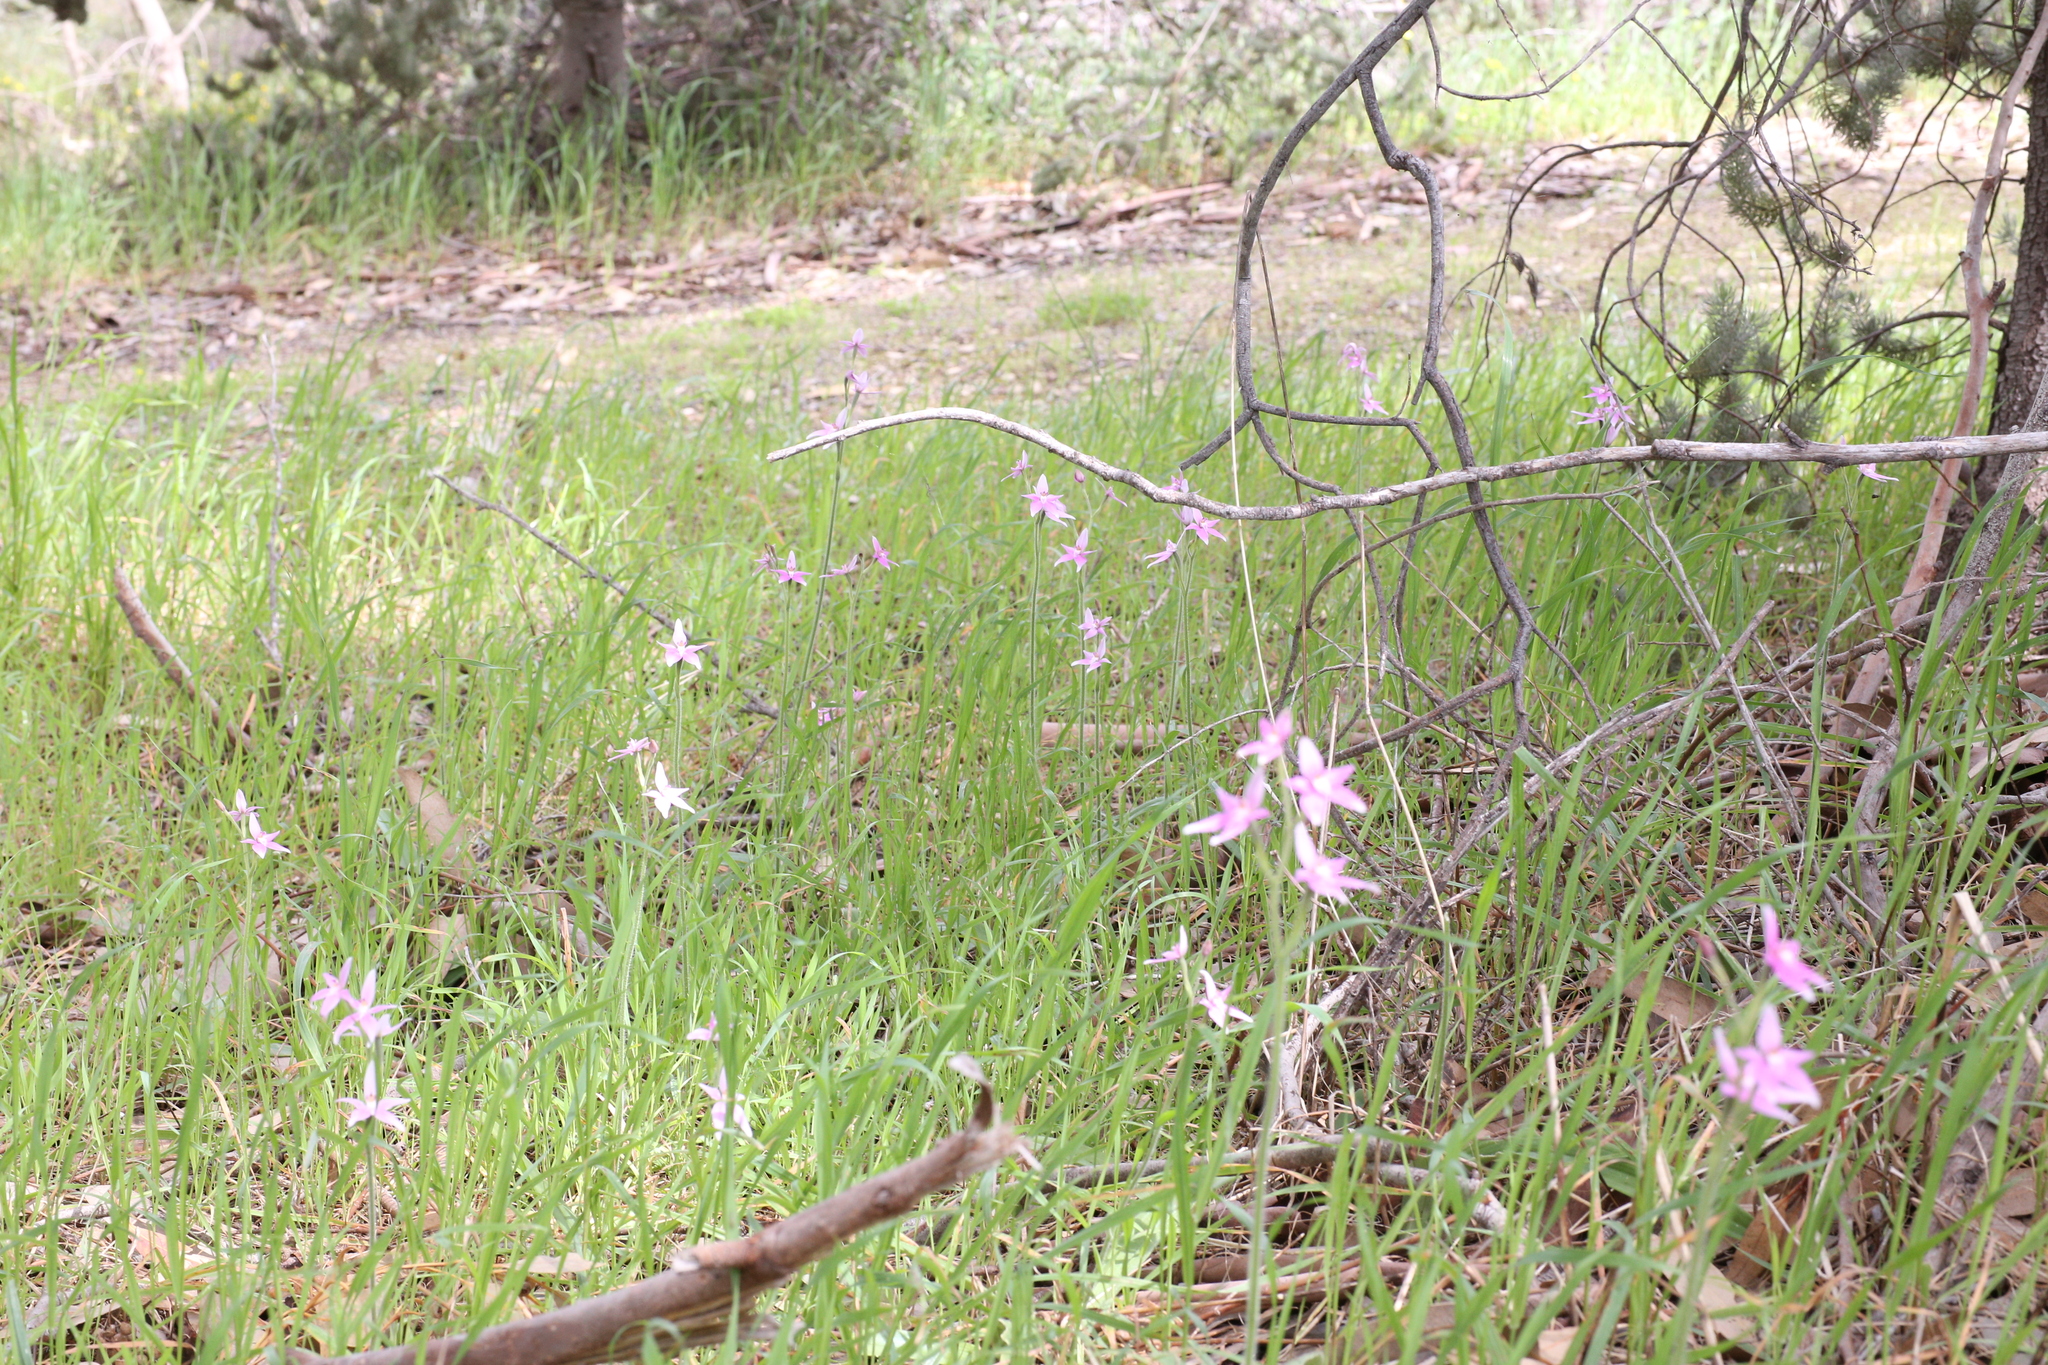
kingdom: Plantae
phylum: Tracheophyta
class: Liliopsida
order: Asparagales
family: Orchidaceae
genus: Caladenia
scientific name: Caladenia latifolia
